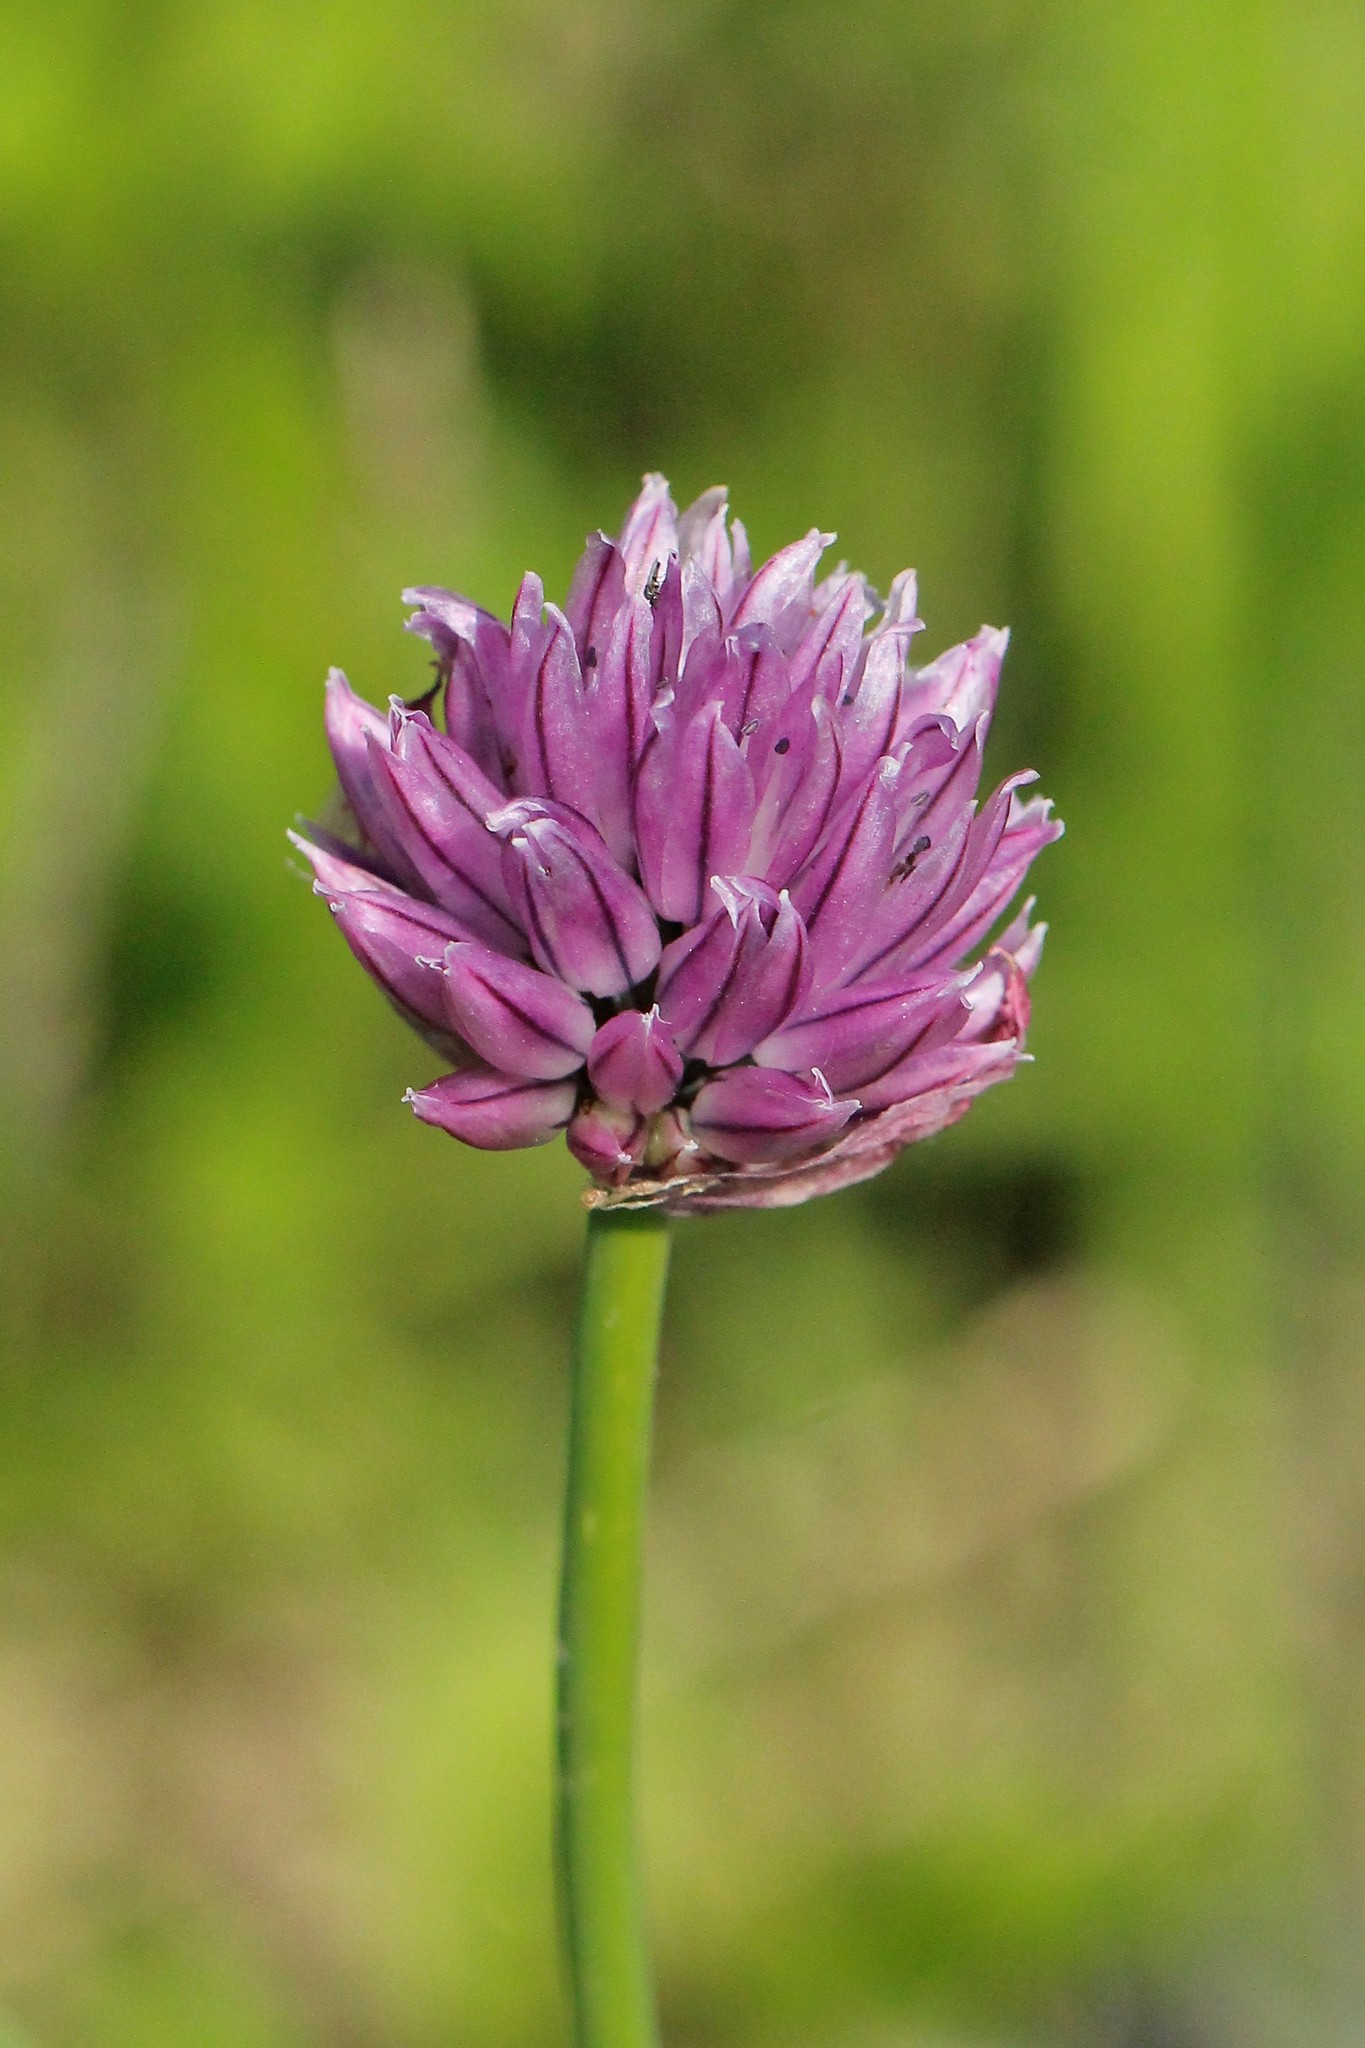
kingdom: Plantae
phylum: Tracheophyta
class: Liliopsida
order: Asparagales
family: Amaryllidaceae
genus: Allium
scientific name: Allium schoenoprasum
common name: Chives
